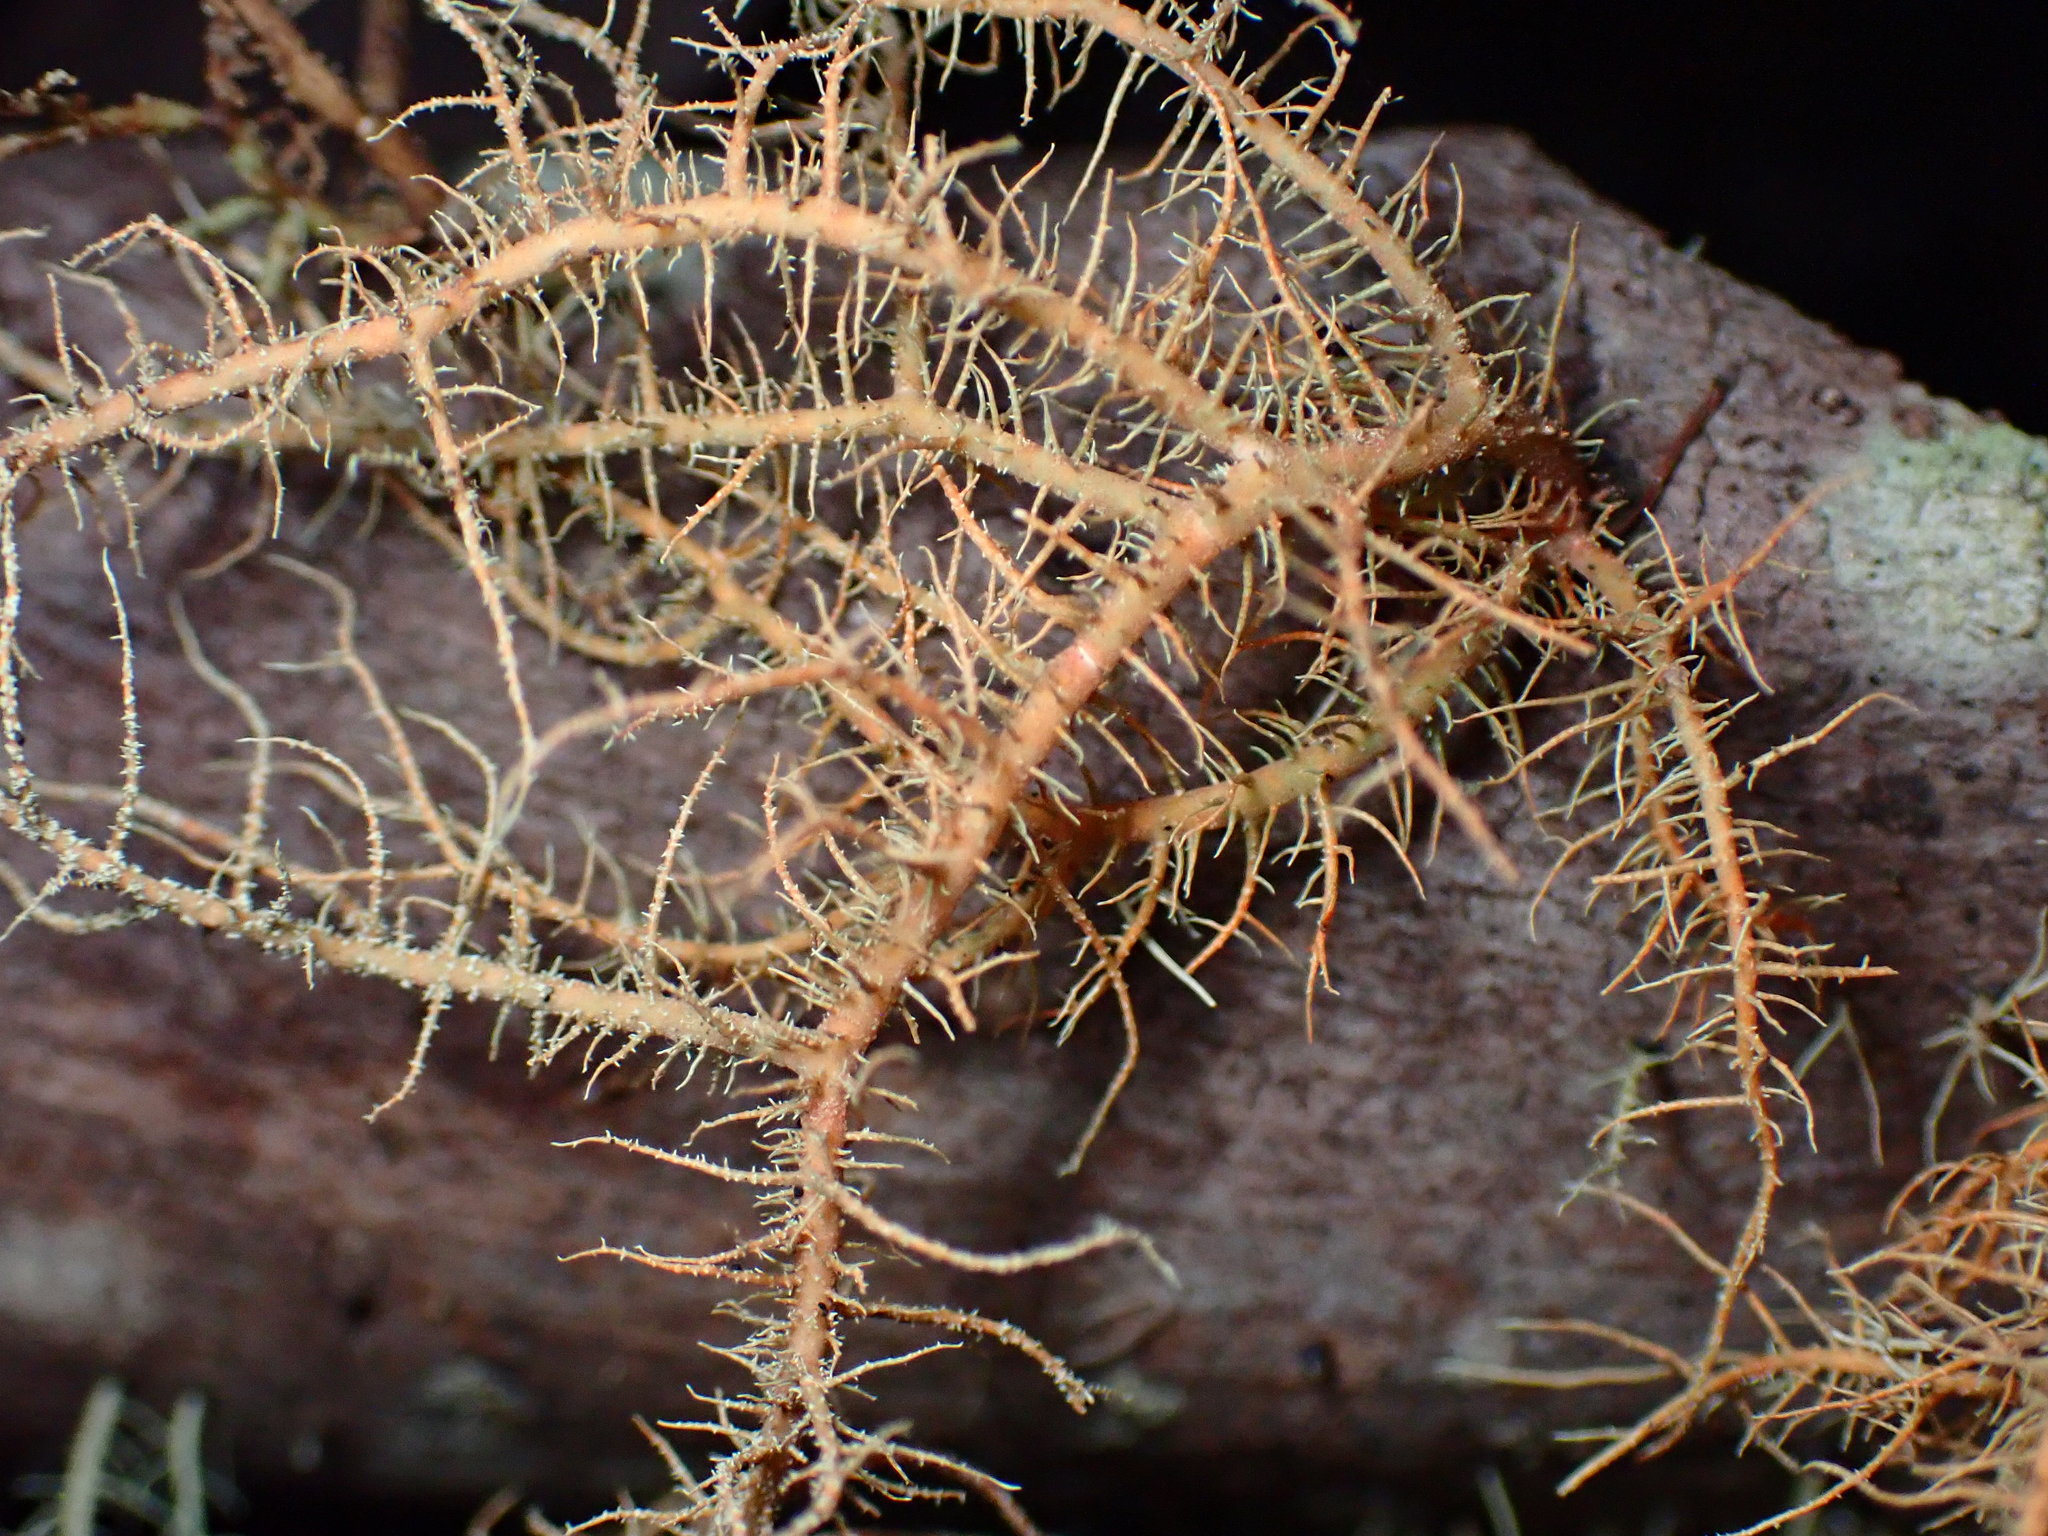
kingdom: Fungi
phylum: Ascomycota
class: Lecanoromycetes
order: Lecanorales
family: Parmeliaceae
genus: Usnea
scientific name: Usnea rubicunda
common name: Red beard lichen
